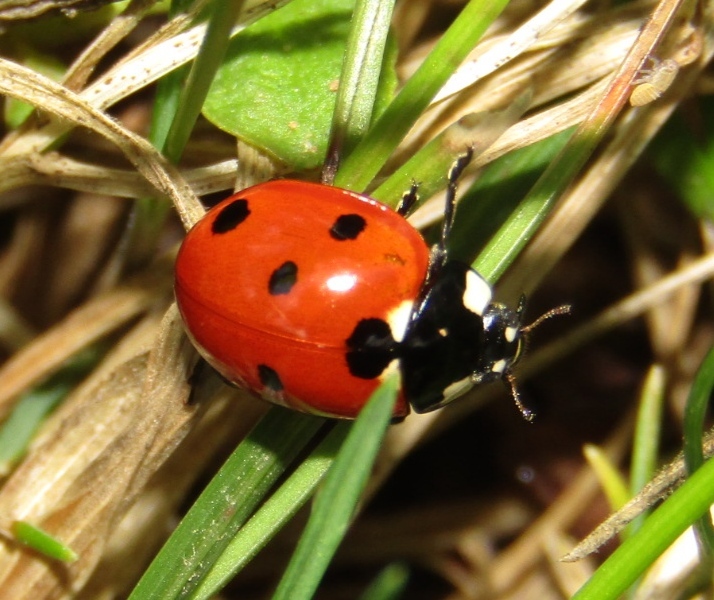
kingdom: Animalia
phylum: Arthropoda
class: Insecta
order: Coleoptera
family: Coccinellidae
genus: Coccinella
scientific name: Coccinella septempunctata
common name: Sevenspotted lady beetle
